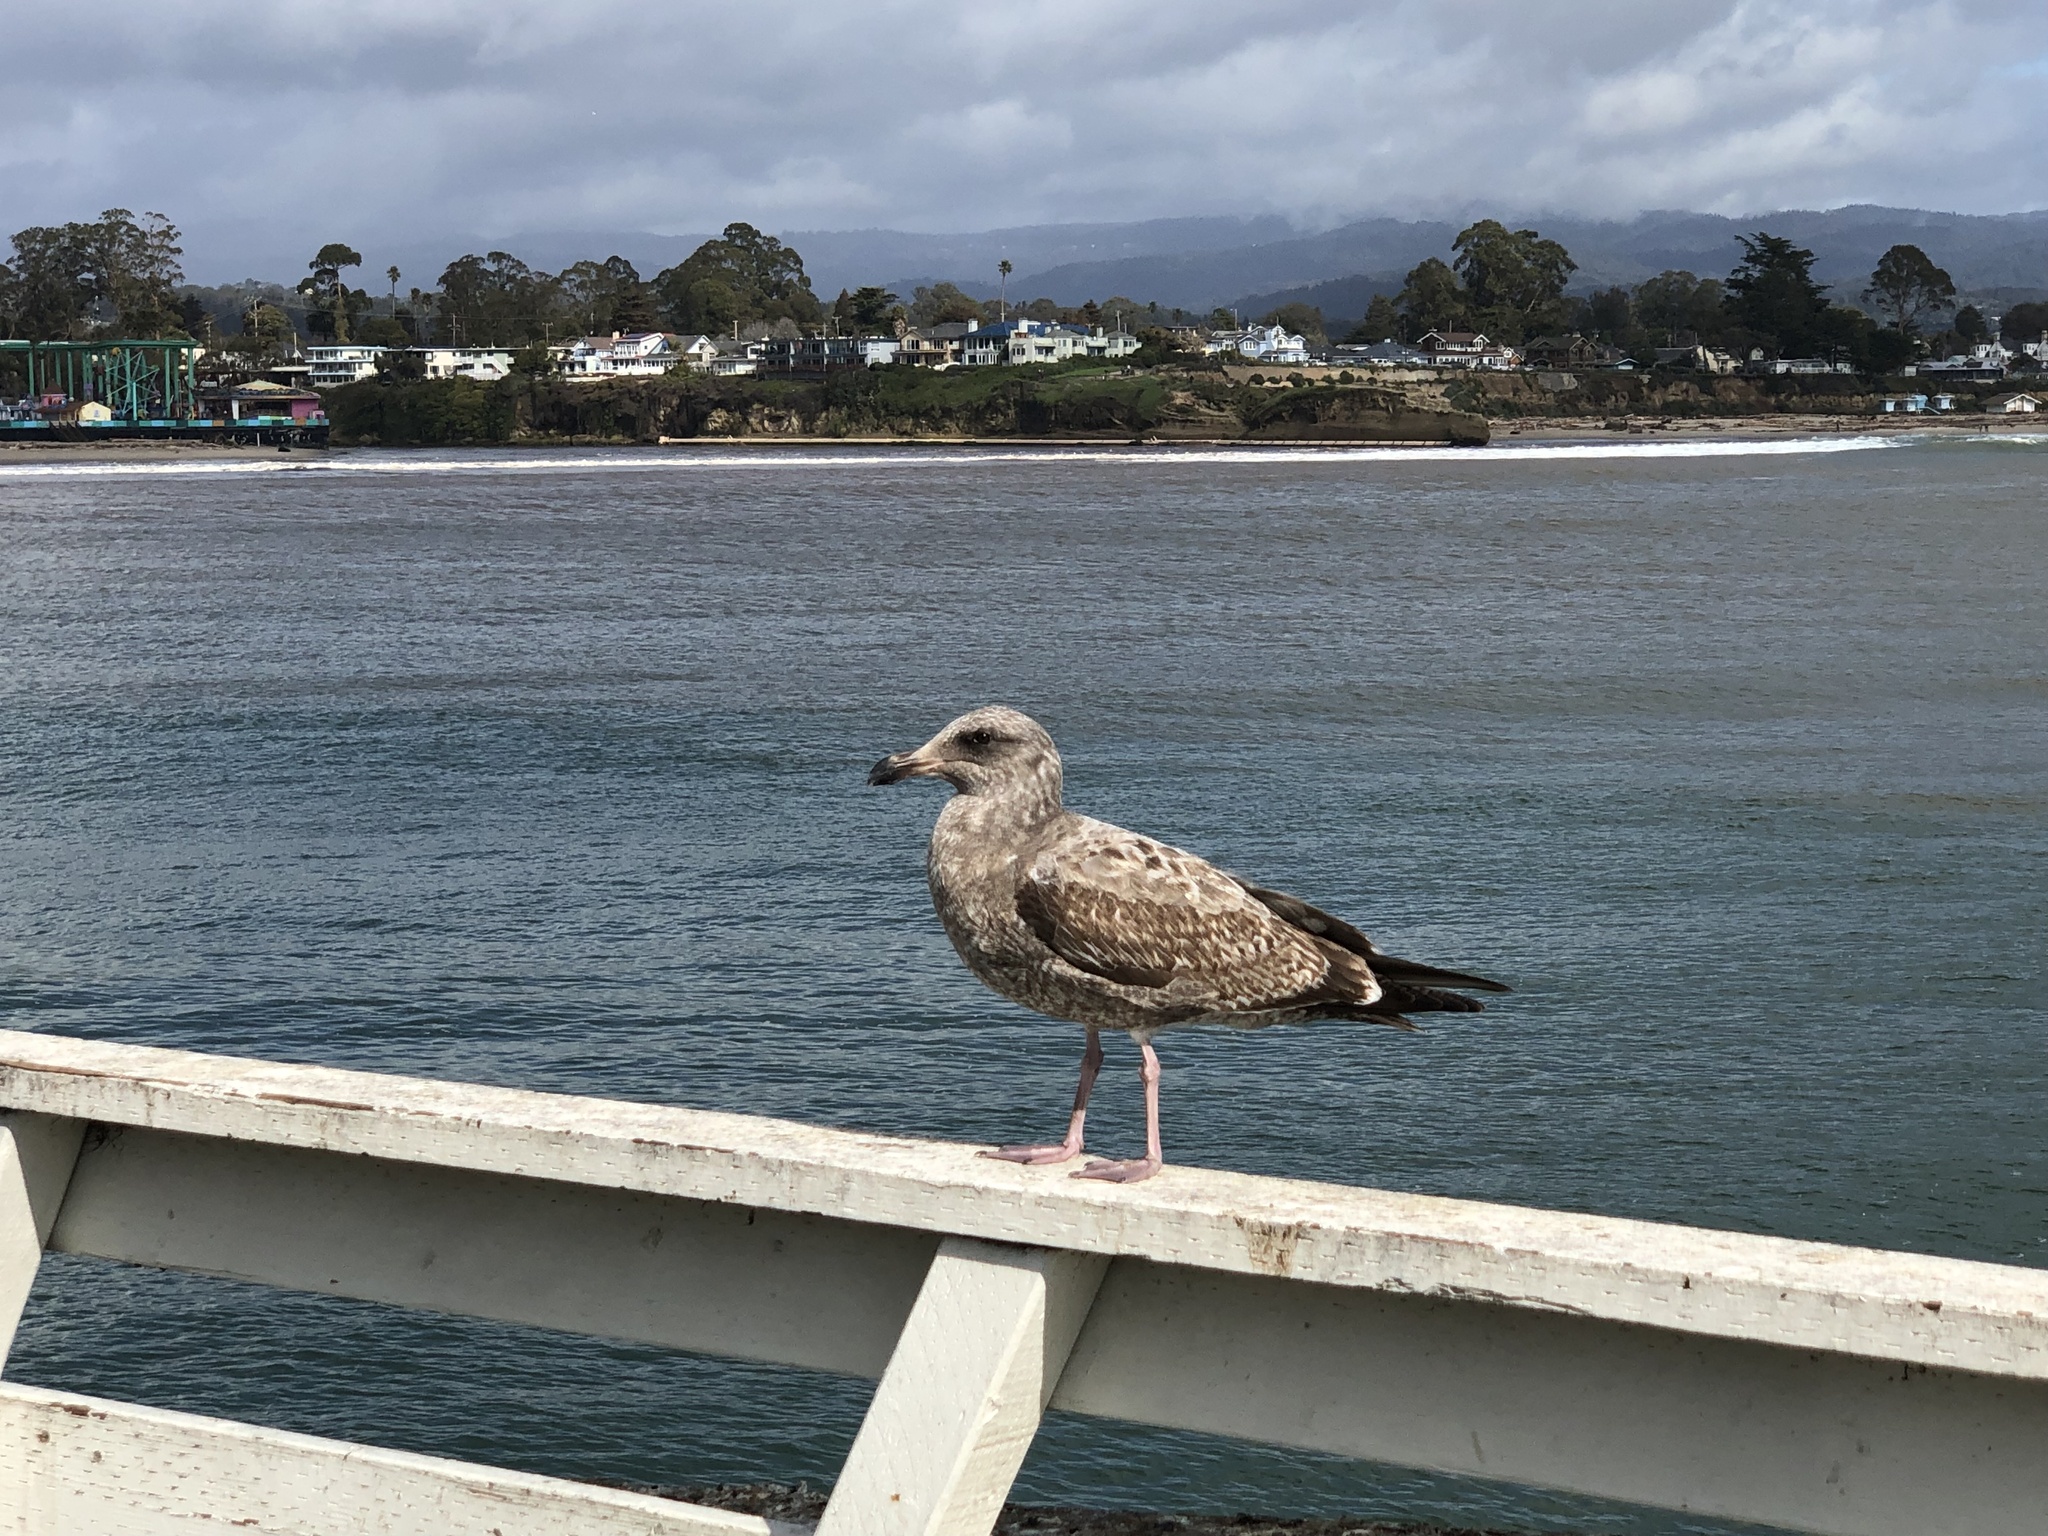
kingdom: Animalia
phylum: Chordata
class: Aves
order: Charadriiformes
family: Laridae
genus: Larus
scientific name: Larus occidentalis
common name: Western gull
